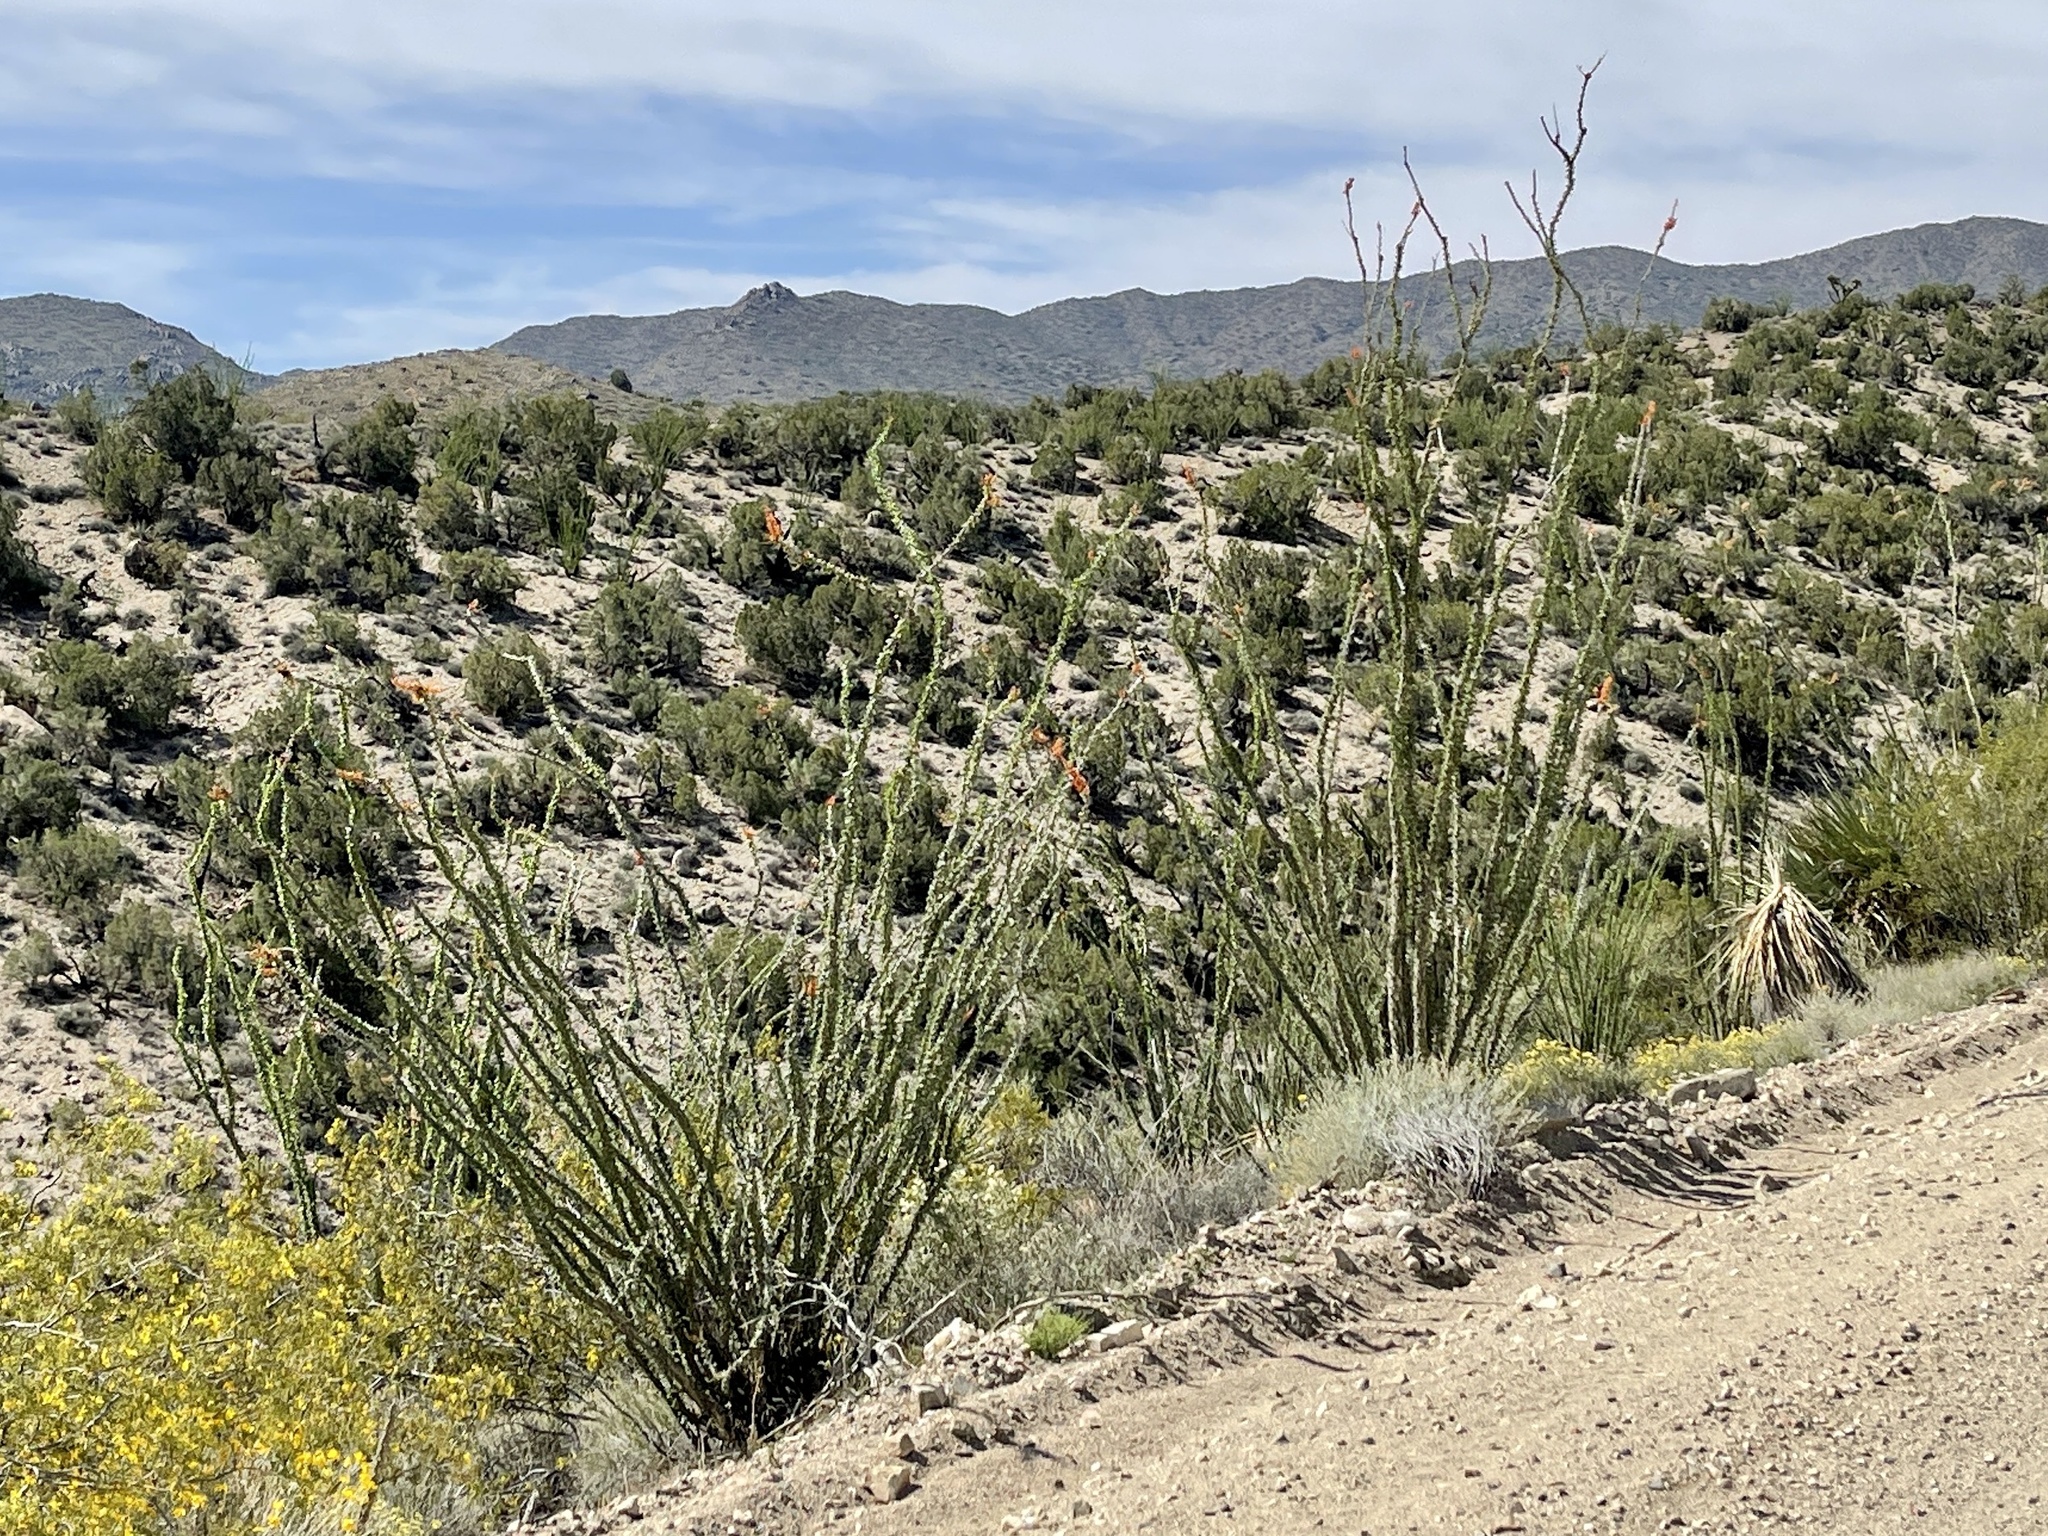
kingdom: Plantae
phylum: Tracheophyta
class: Magnoliopsida
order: Ericales
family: Fouquieriaceae
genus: Fouquieria
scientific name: Fouquieria splendens
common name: Vine-cactus
